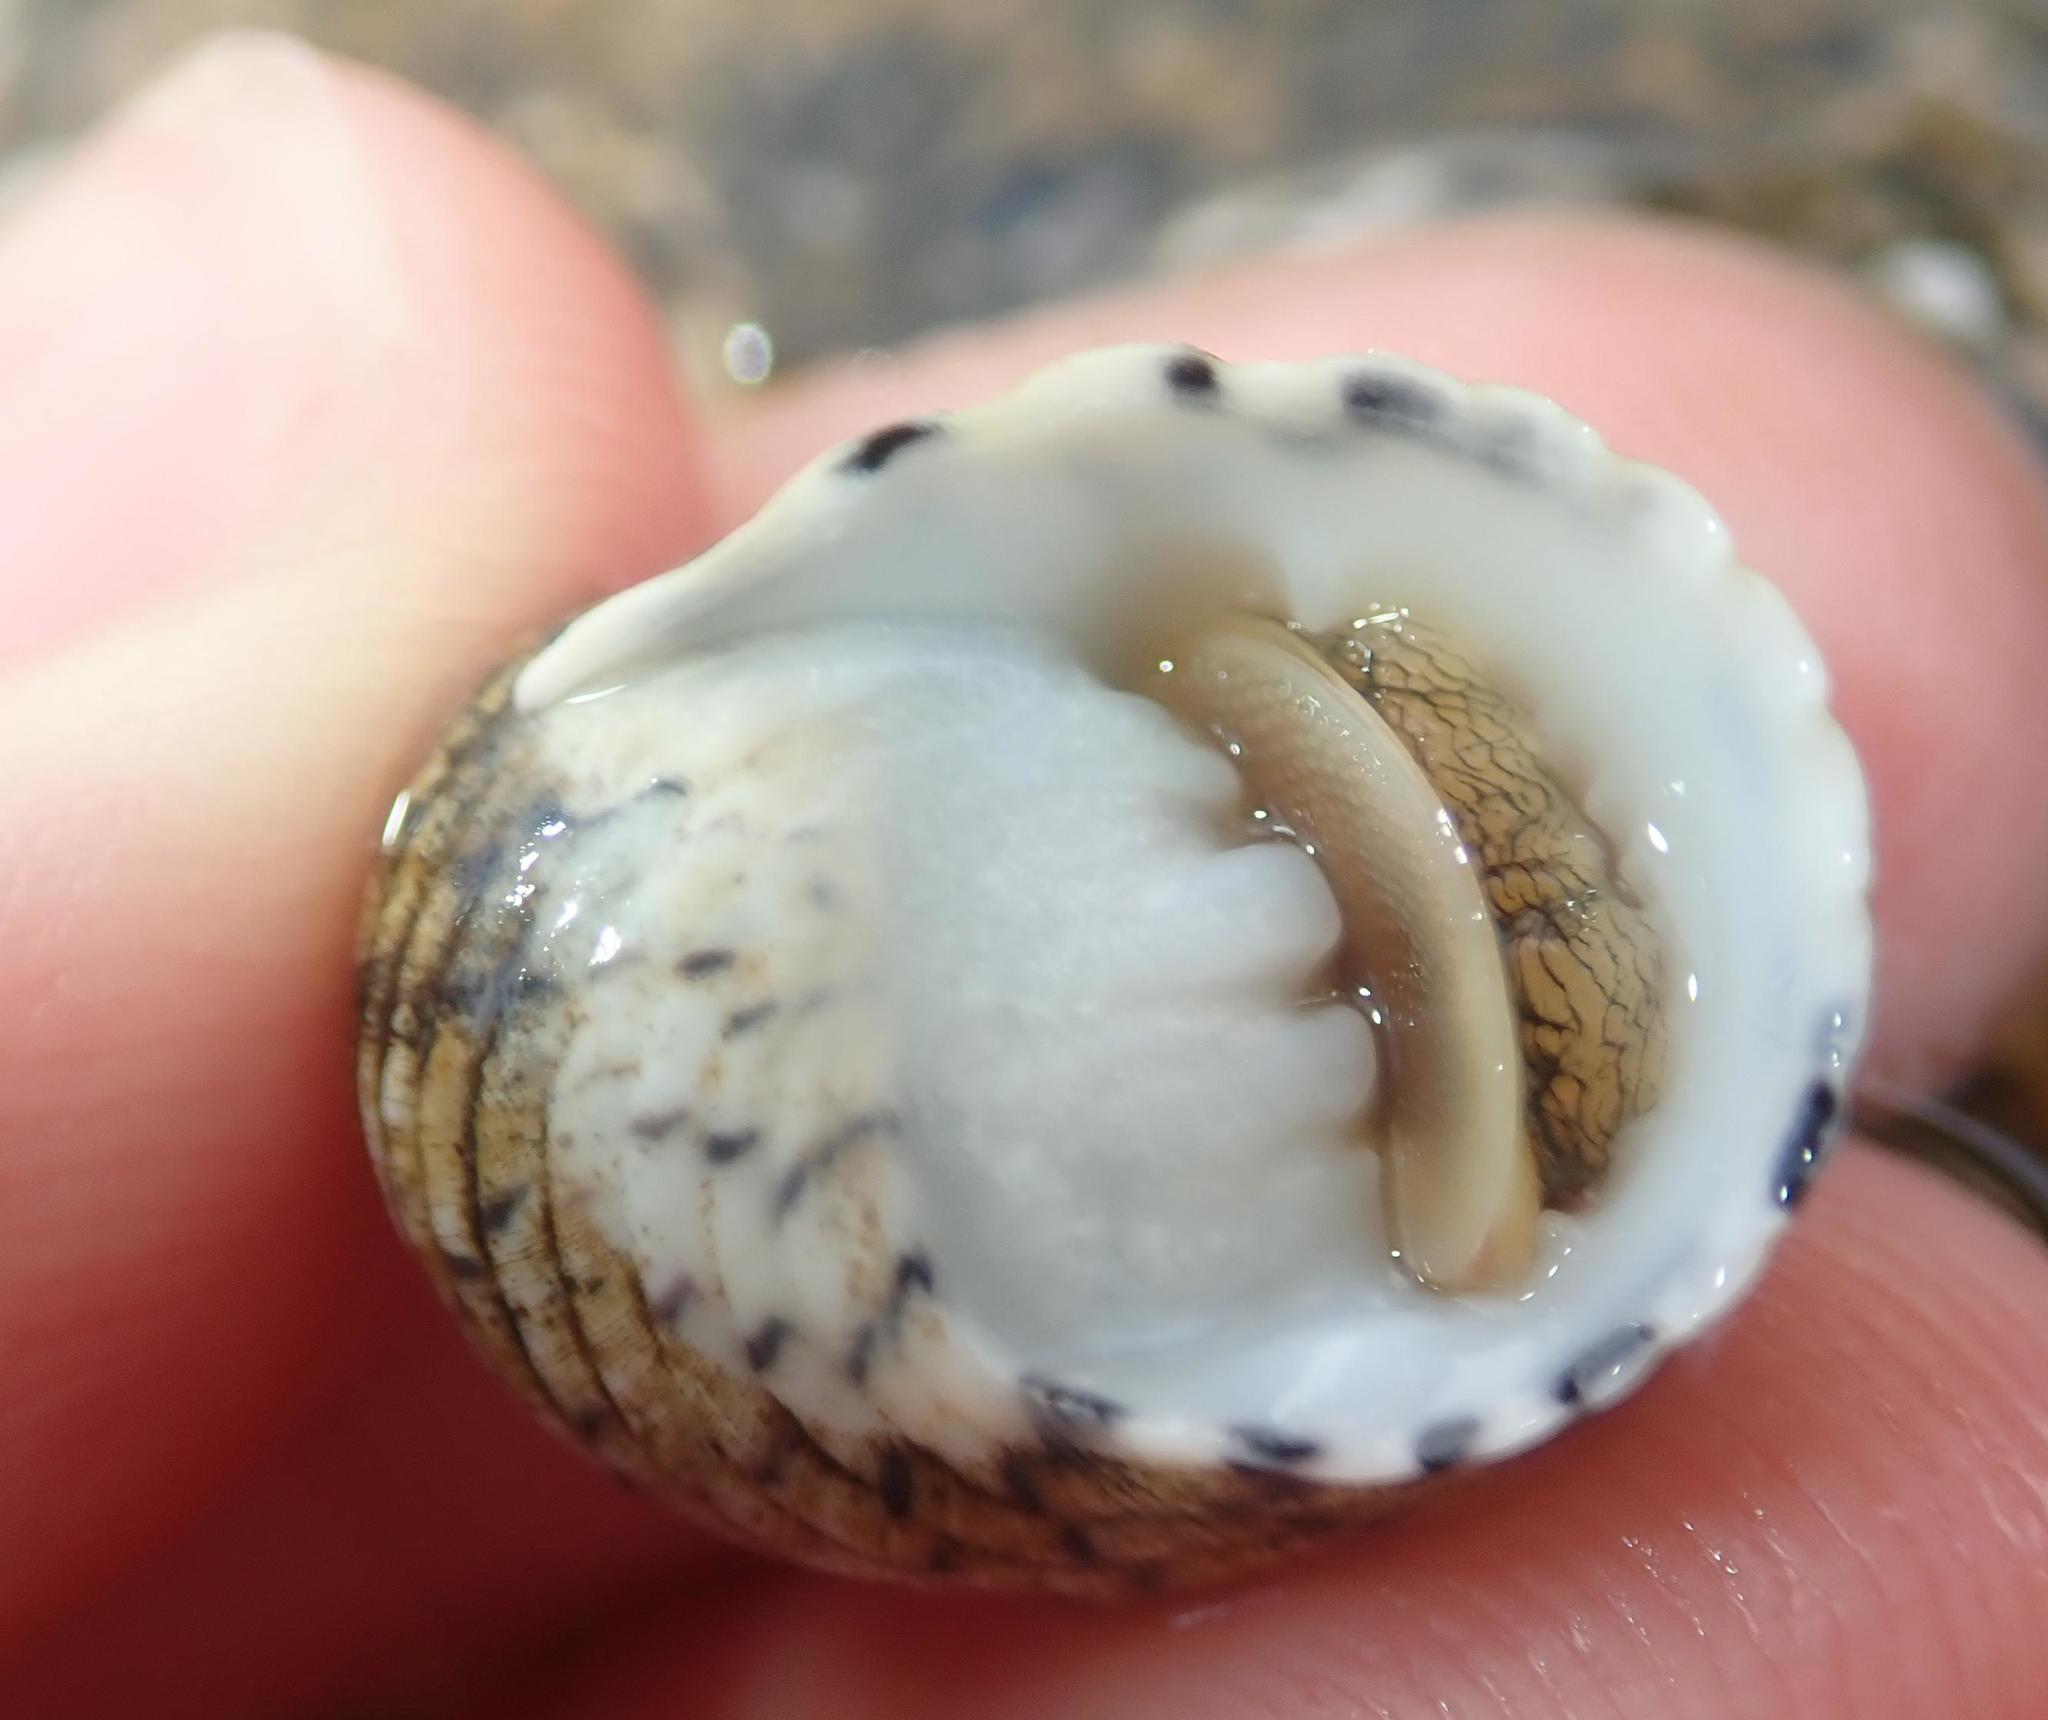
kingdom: Animalia
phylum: Mollusca
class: Gastropoda
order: Cycloneritida
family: Neritidae
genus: Nerita
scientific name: Nerita versicolor
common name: Four-tooth nerite
